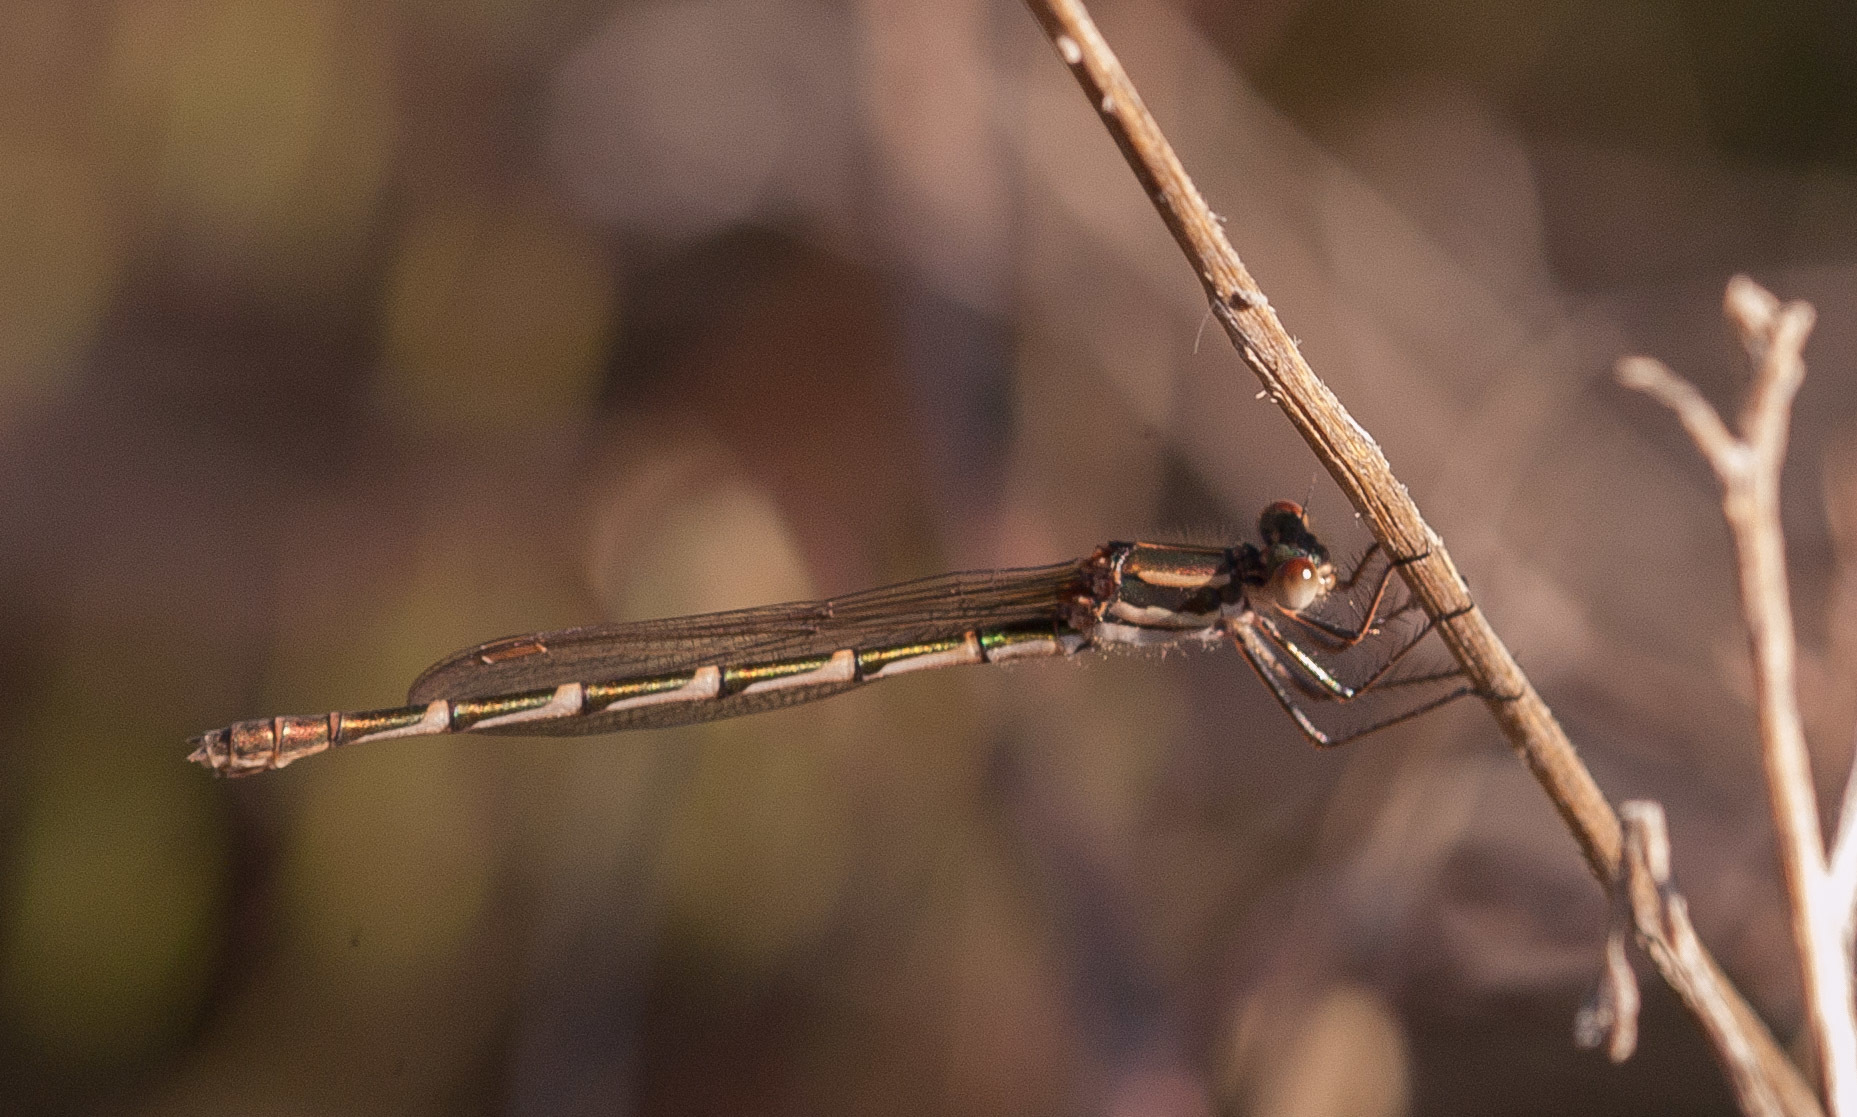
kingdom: Animalia
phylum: Arthropoda
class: Insecta
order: Odonata
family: Lestidae
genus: Austrolestes
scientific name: Austrolestes annulosus
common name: Blue ringtail
